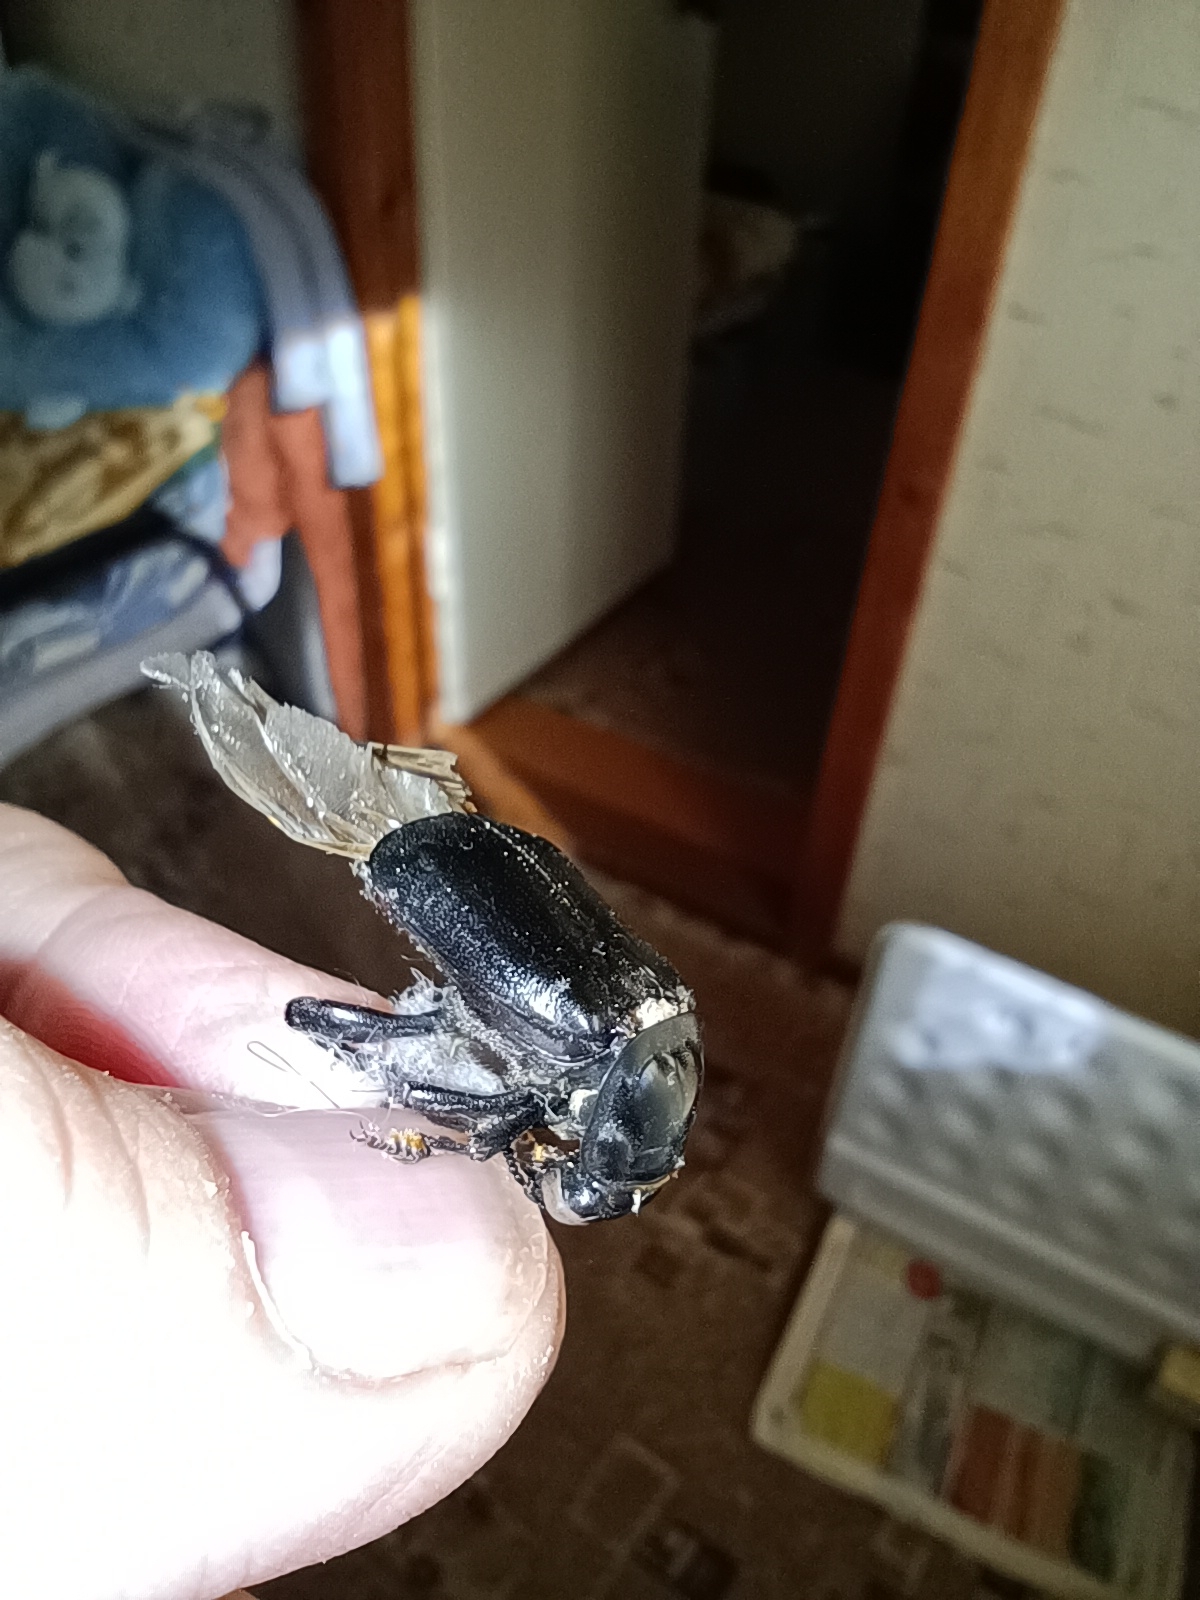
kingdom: Animalia
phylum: Arthropoda
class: Insecta
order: Coleoptera
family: Staphylinidae
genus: Nicrophorus
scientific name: Nicrophorus humator
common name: Black sexton beetle
